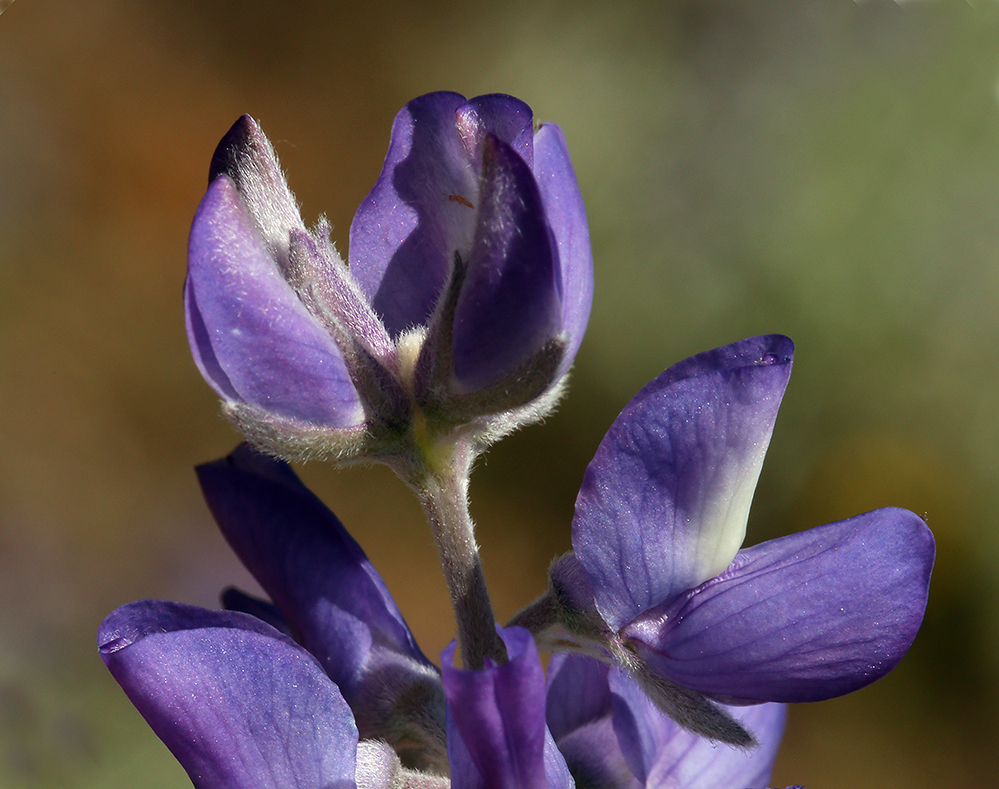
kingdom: Plantae
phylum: Tracheophyta
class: Magnoliopsida
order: Fabales
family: Fabaceae
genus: Lupinus
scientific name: Lupinus obtusilobus
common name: Blunt-lobe lupine
